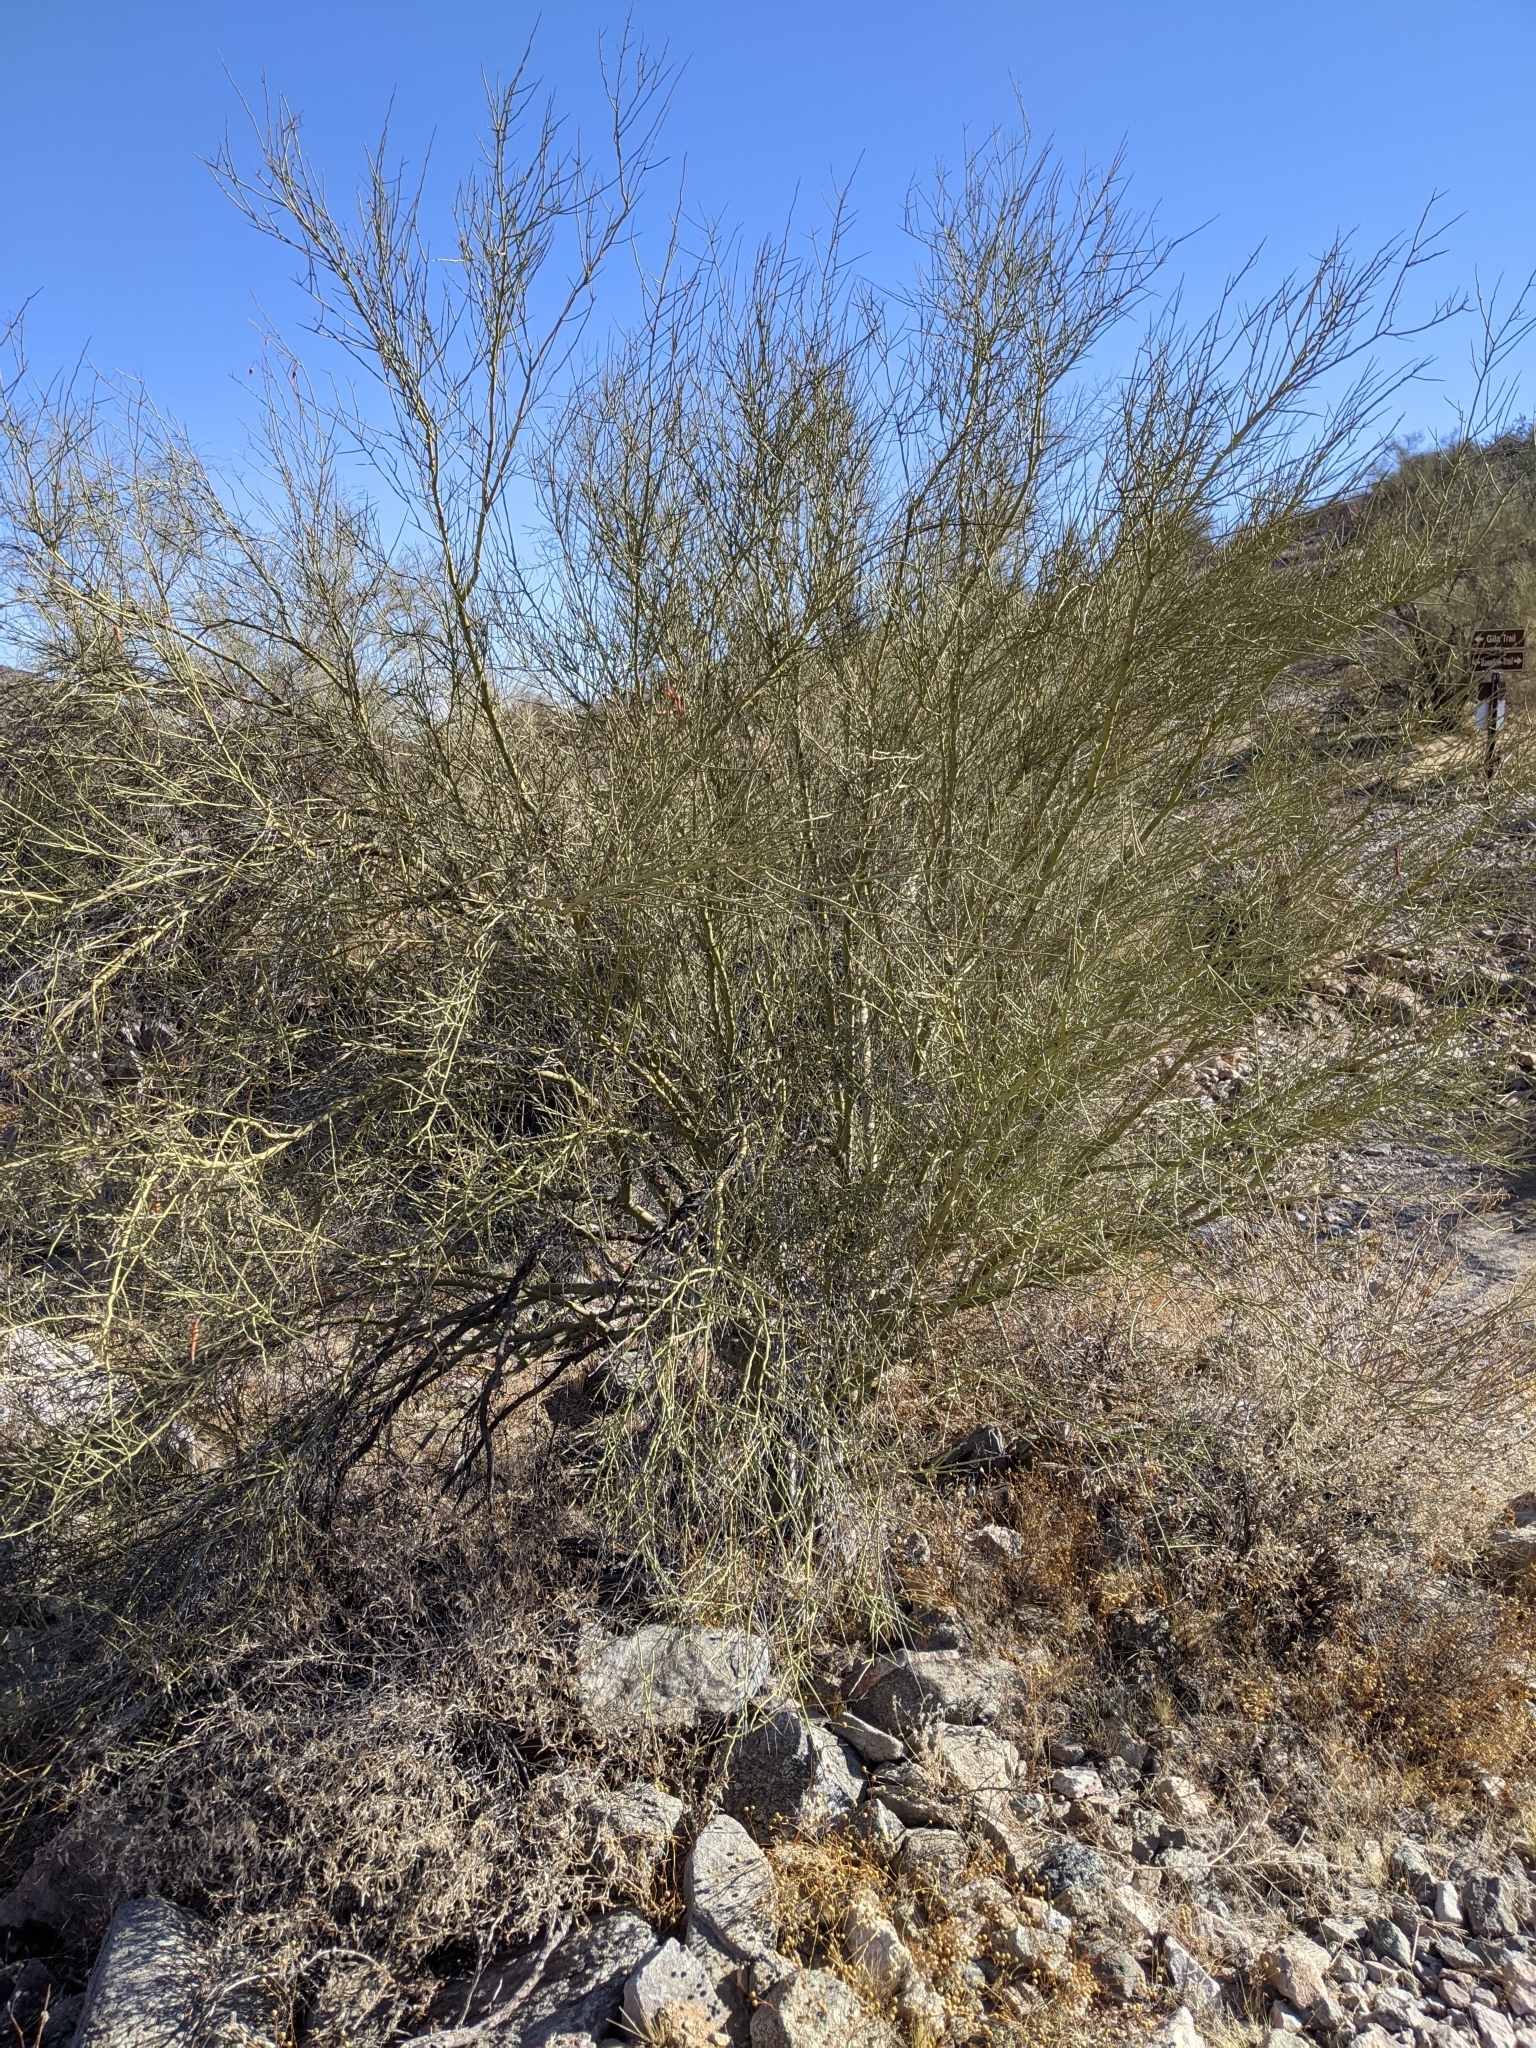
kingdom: Plantae
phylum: Tracheophyta
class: Magnoliopsida
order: Fabales
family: Fabaceae
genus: Parkinsonia
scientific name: Parkinsonia microphylla
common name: Yellow paloverde
